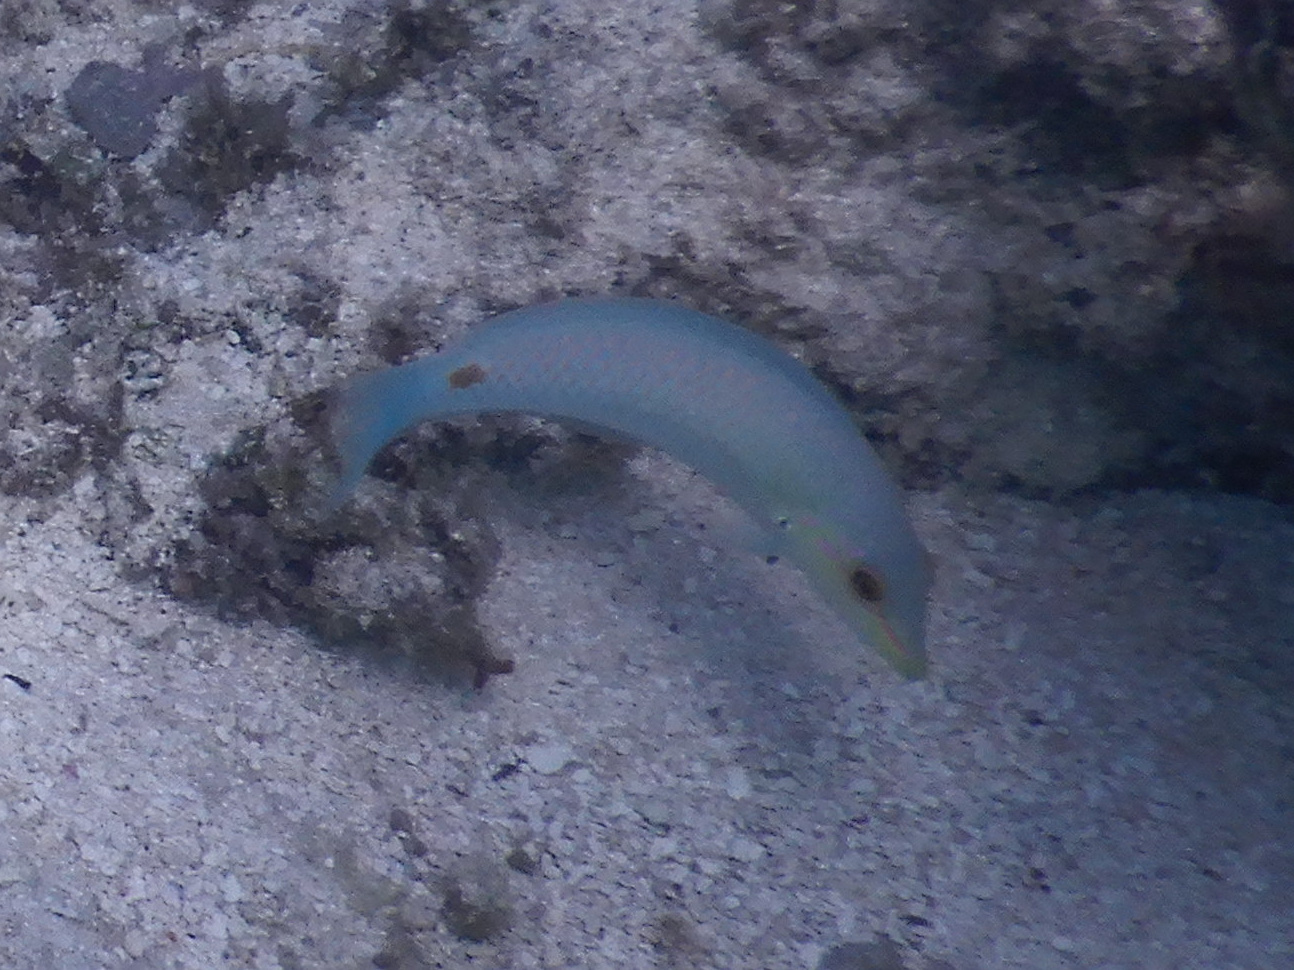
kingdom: Animalia
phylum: Chordata
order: Perciformes
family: Labridae
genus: Halichoeres
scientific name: Halichoeres trimaculatus
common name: Three-spot wrasse
